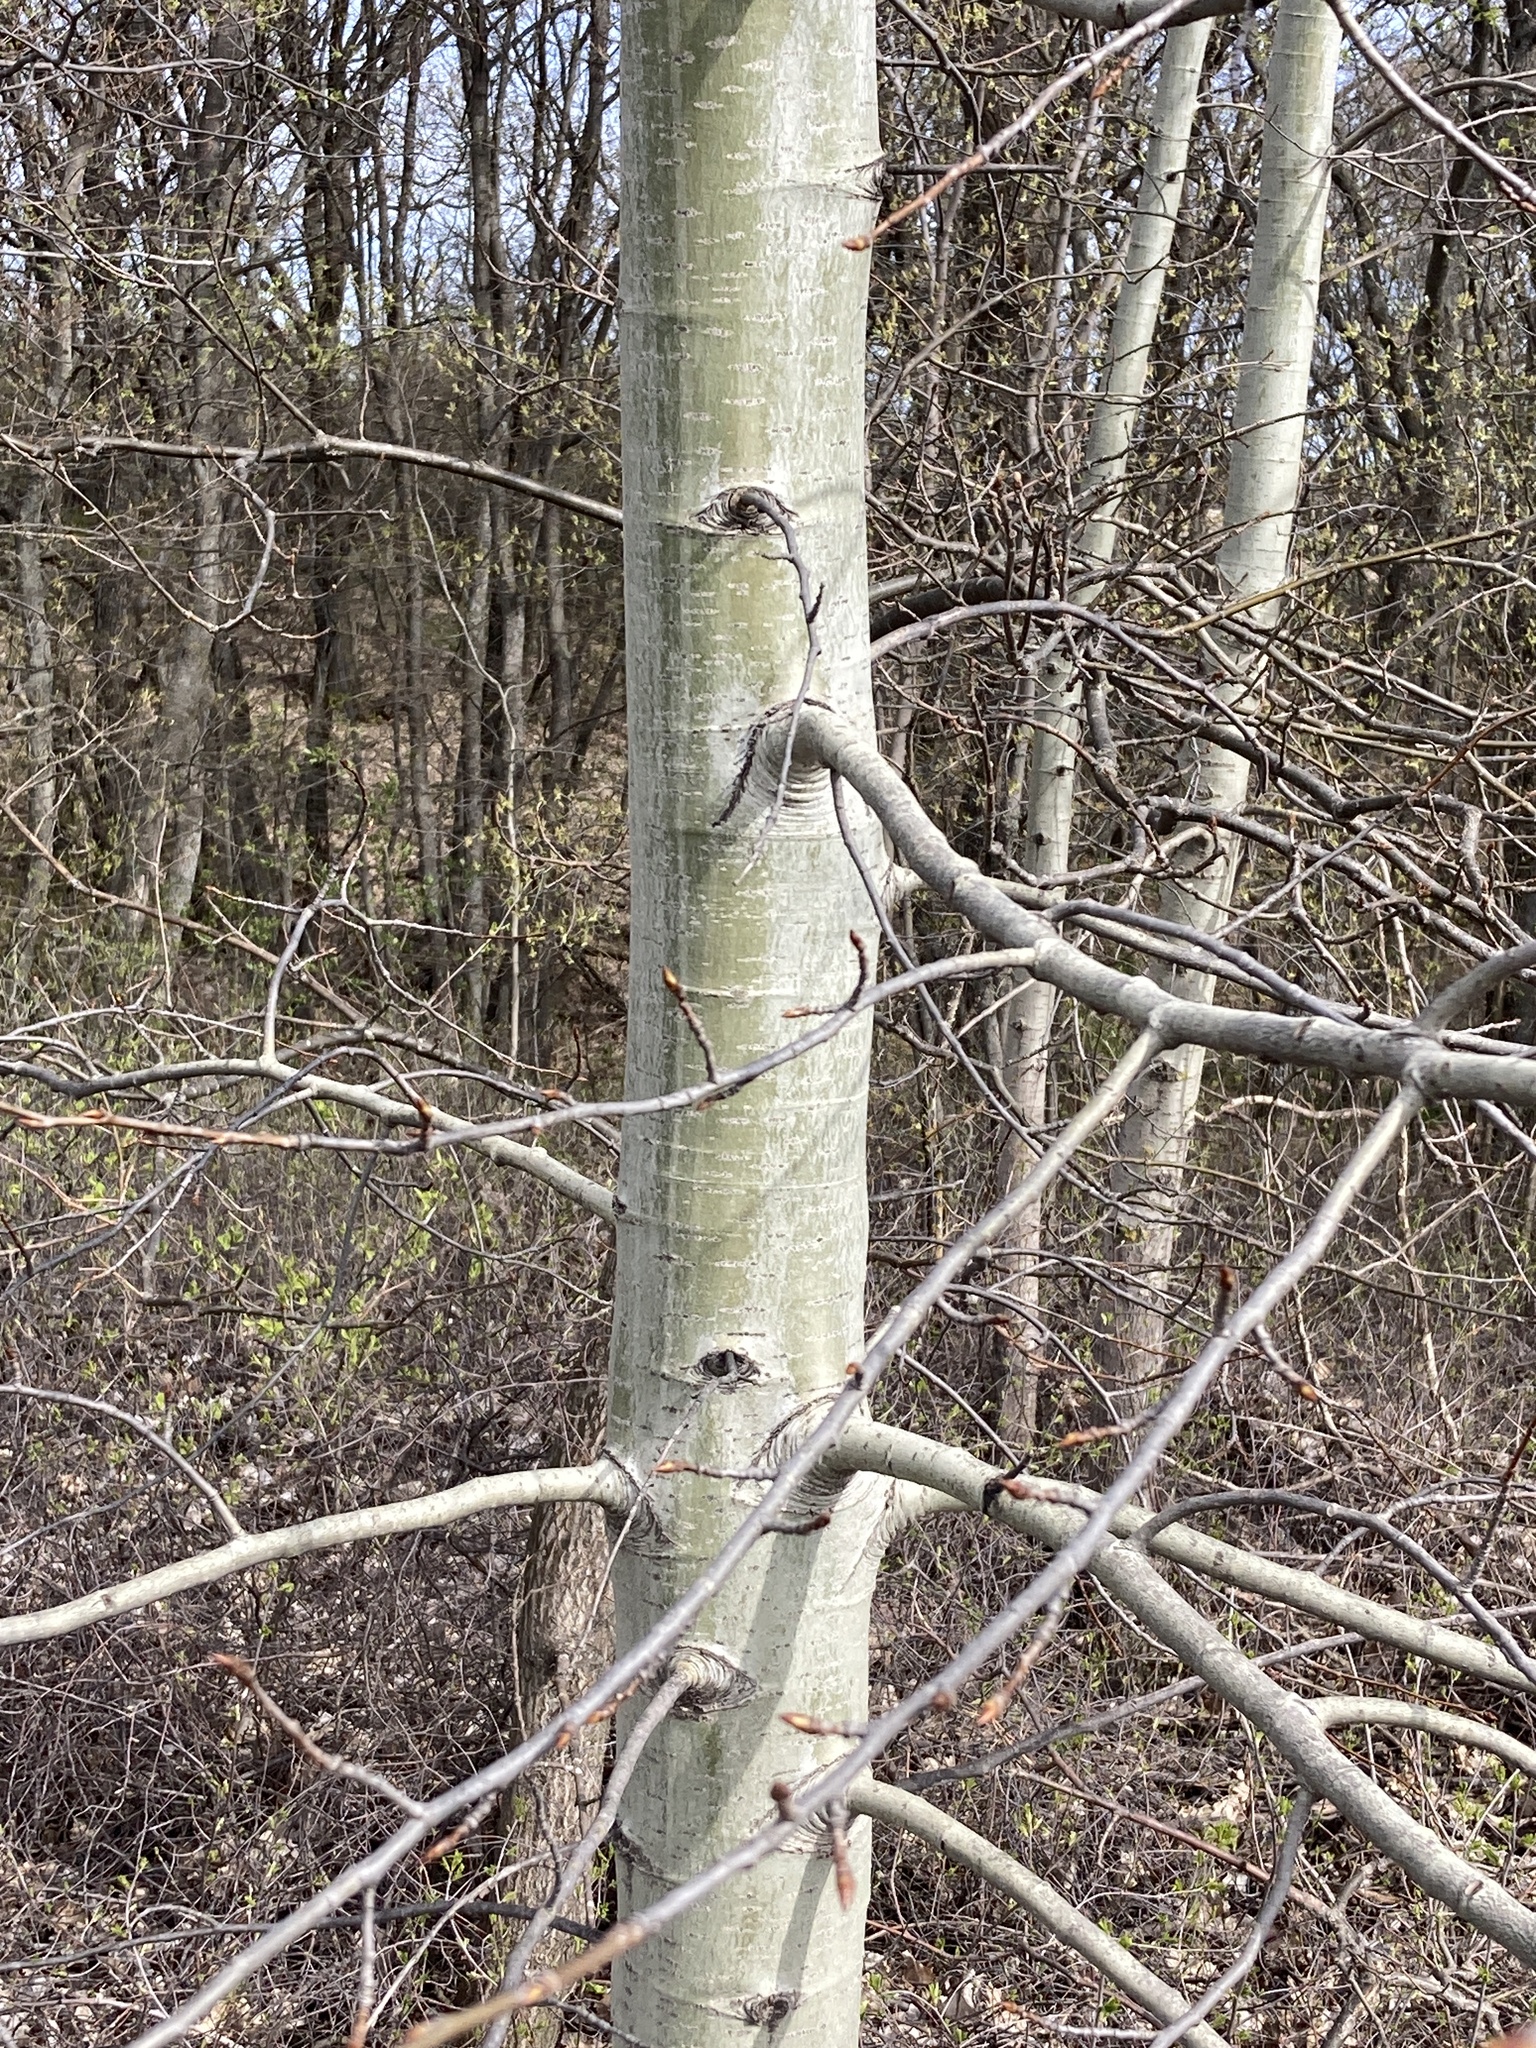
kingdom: Plantae
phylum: Tracheophyta
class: Magnoliopsida
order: Malpighiales
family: Salicaceae
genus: Populus
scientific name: Populus tremula
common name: European aspen
